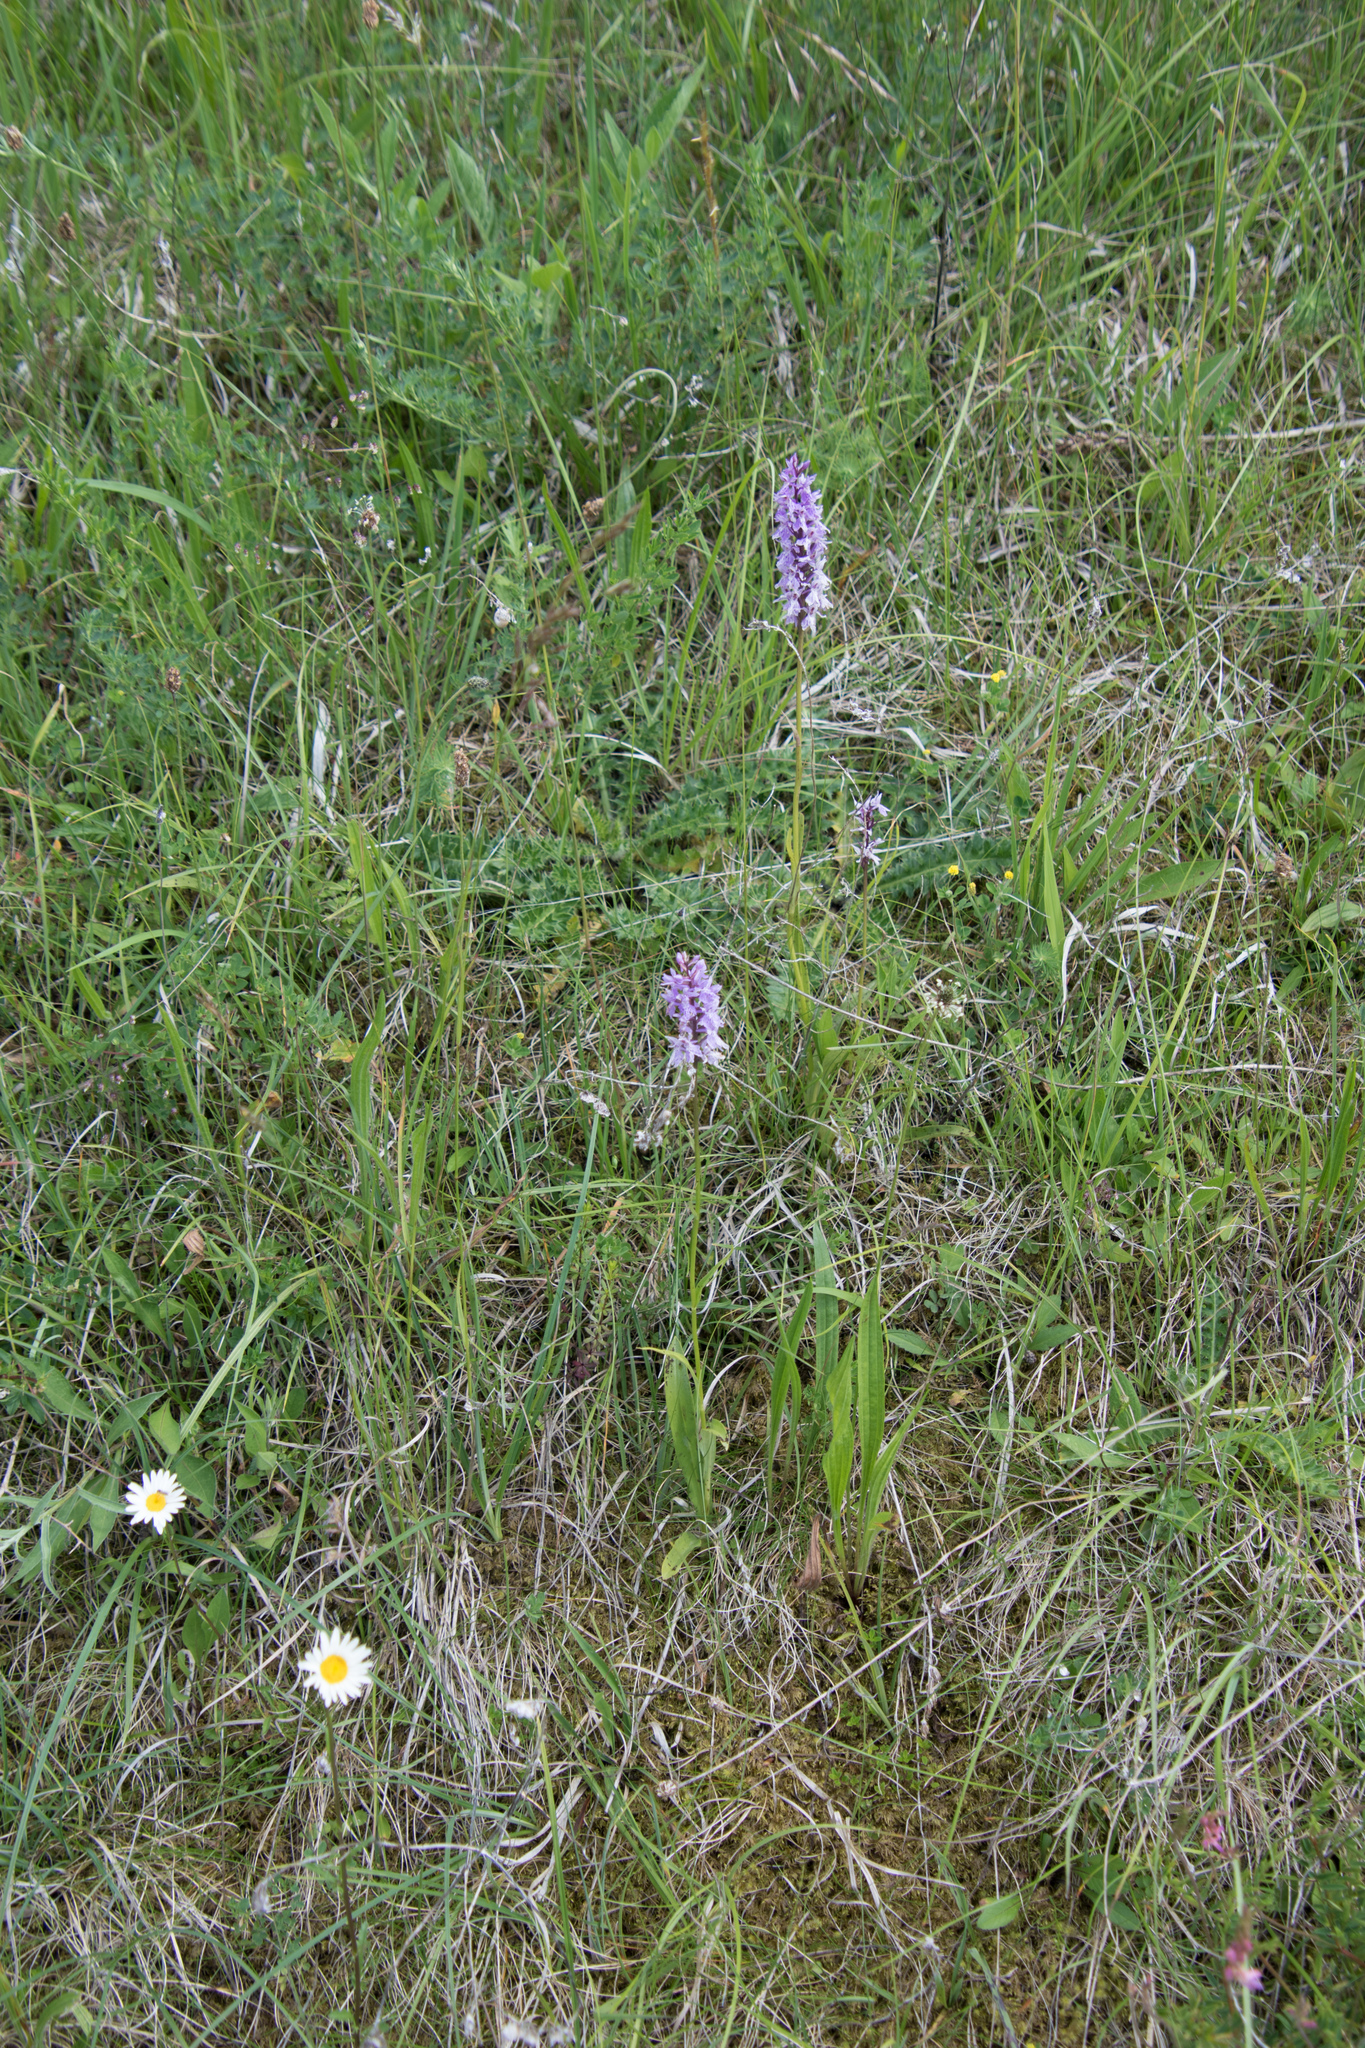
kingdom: Plantae
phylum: Tracheophyta
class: Liliopsida
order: Asparagales
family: Orchidaceae
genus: Dactylorhiza
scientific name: Dactylorhiza maculata
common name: Heath spotted-orchid
